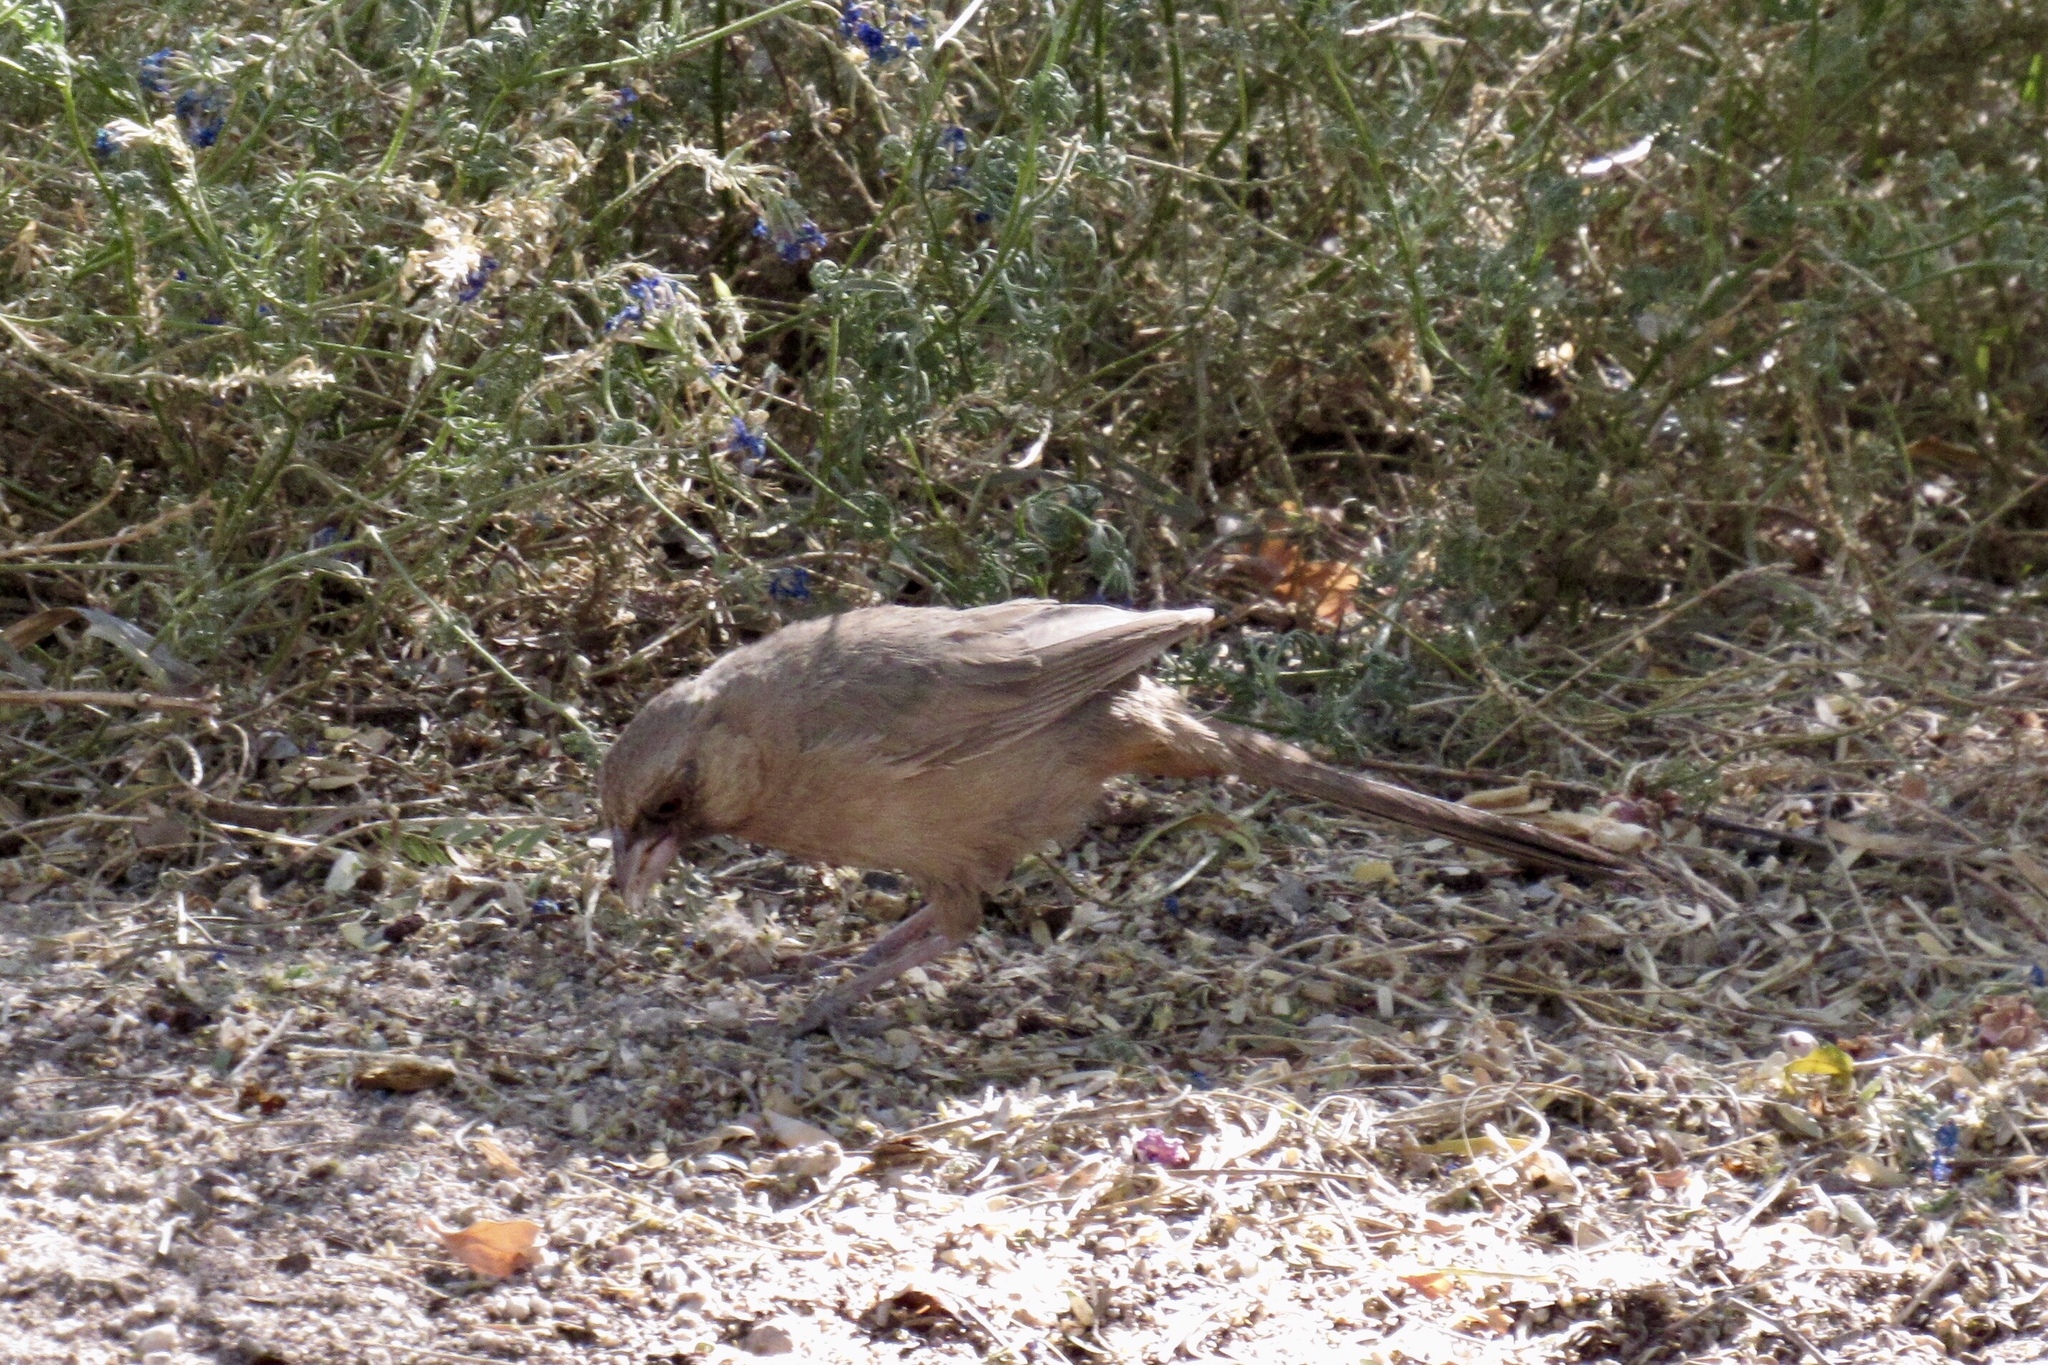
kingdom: Animalia
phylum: Chordata
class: Aves
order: Passeriformes
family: Passerellidae
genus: Melozone
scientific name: Melozone aberti
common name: Abert's towhee
